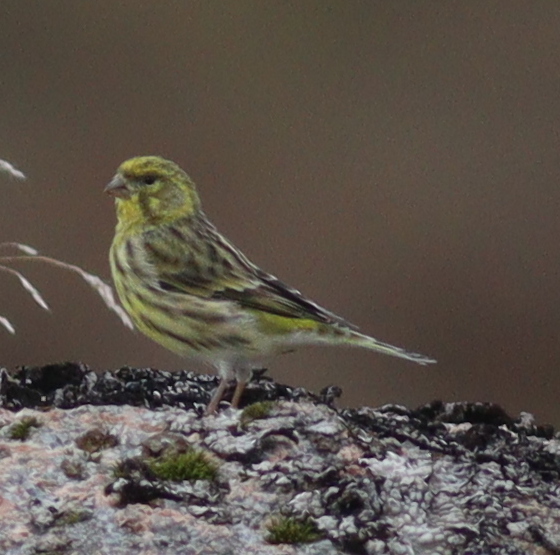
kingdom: Animalia
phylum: Chordata
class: Aves
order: Passeriformes
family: Fringillidae
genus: Serinus
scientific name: Serinus serinus
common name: European serin
